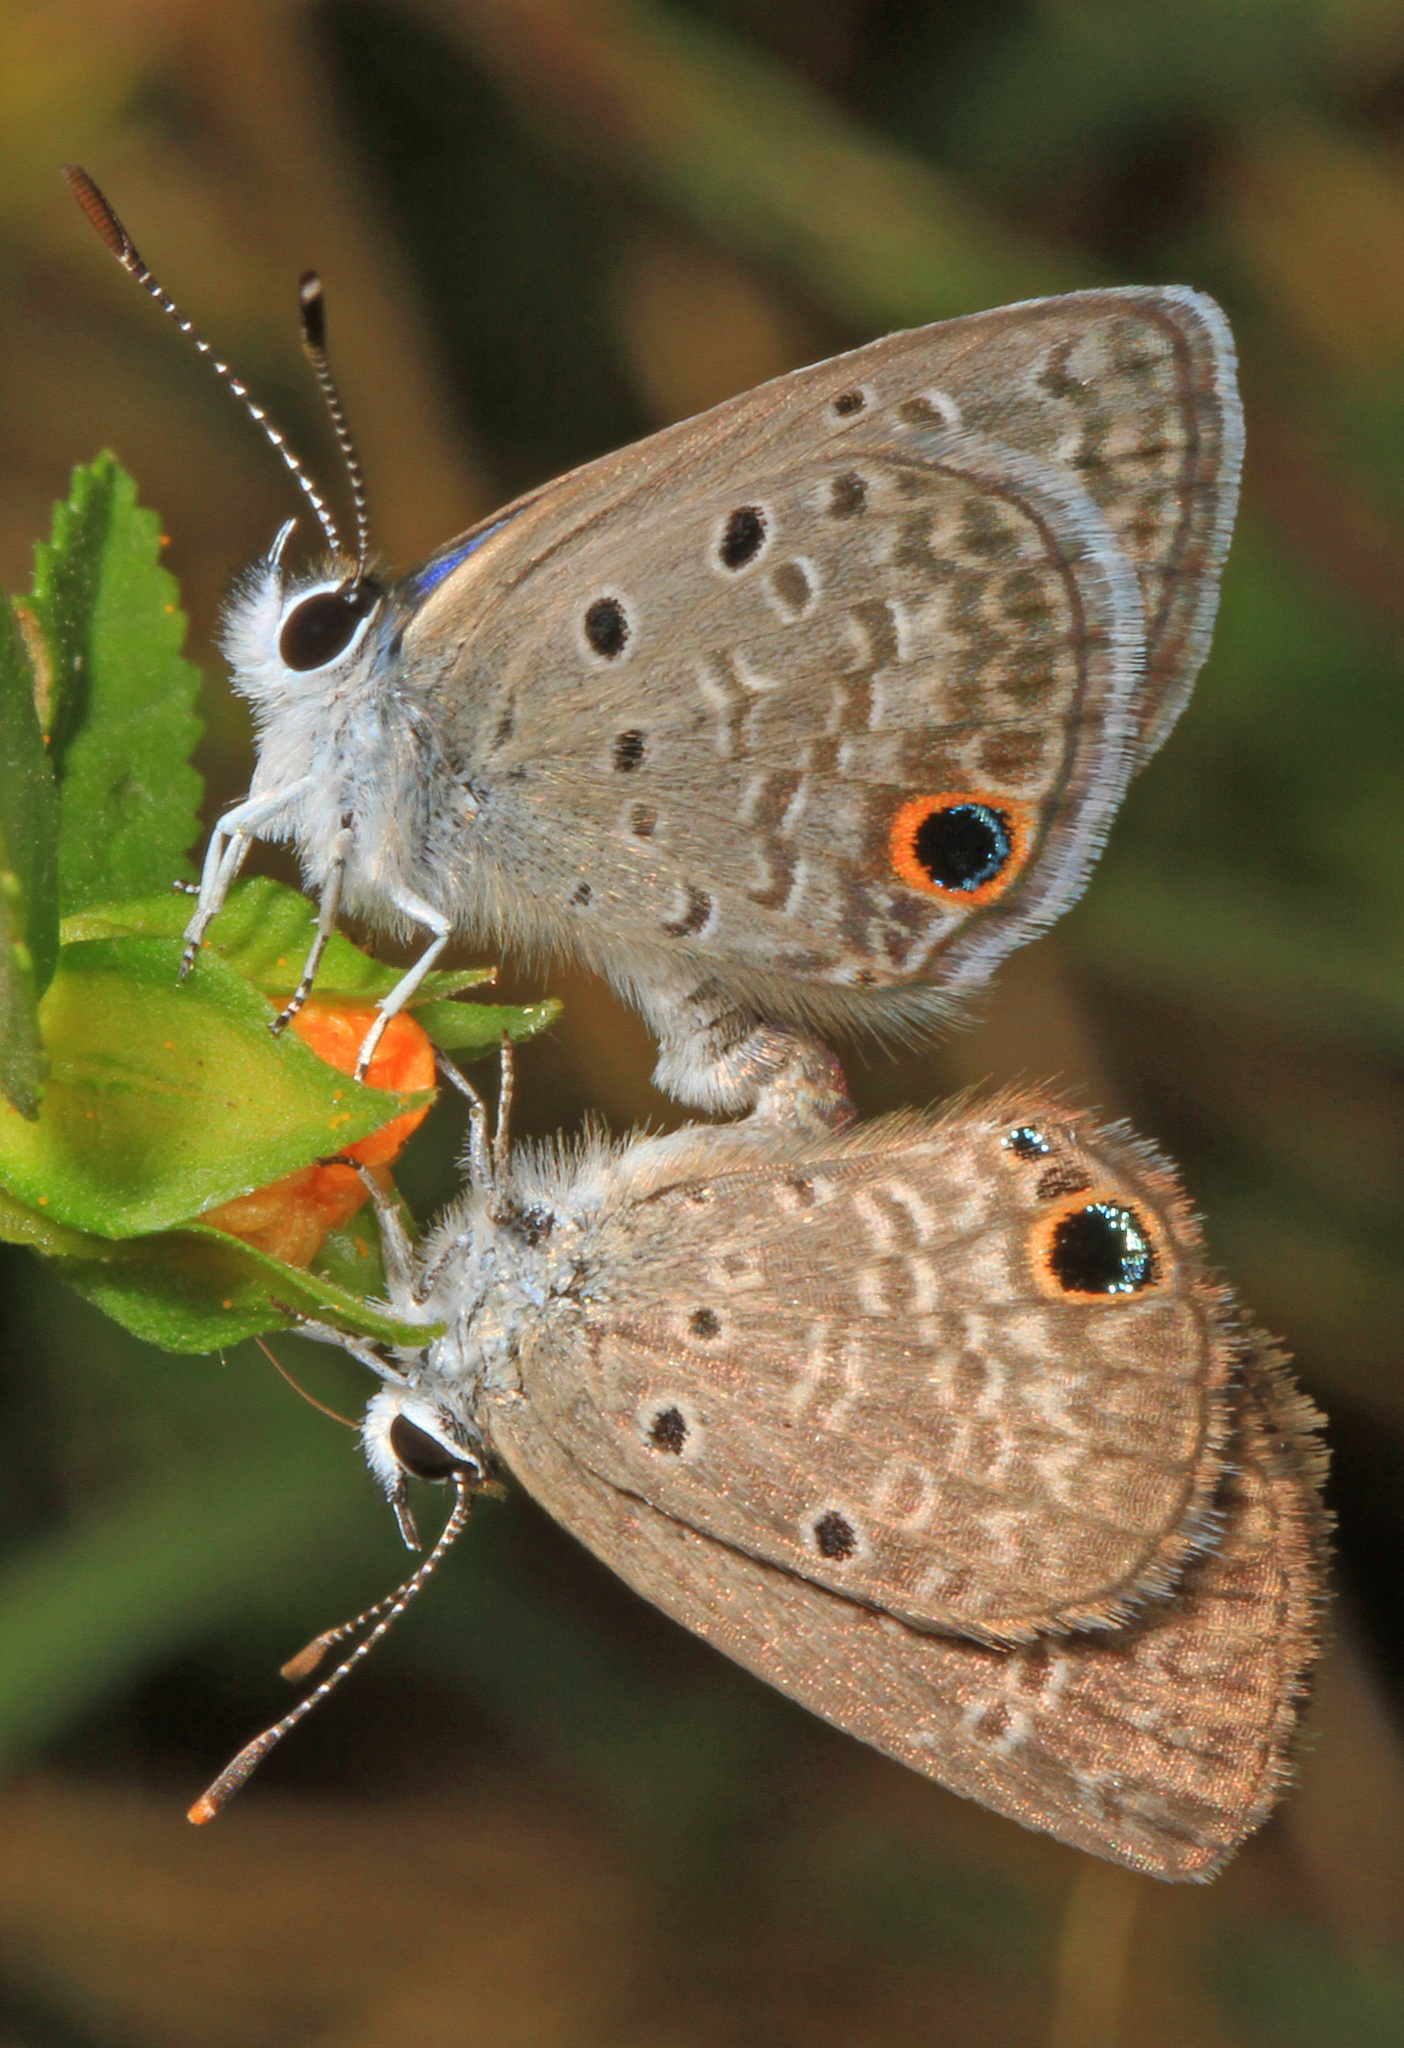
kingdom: Animalia
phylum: Arthropoda
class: Insecta
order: Lepidoptera
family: Lycaenidae
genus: Hemiargus
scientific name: Hemiargus ceraunus
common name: Ceraunus blue
